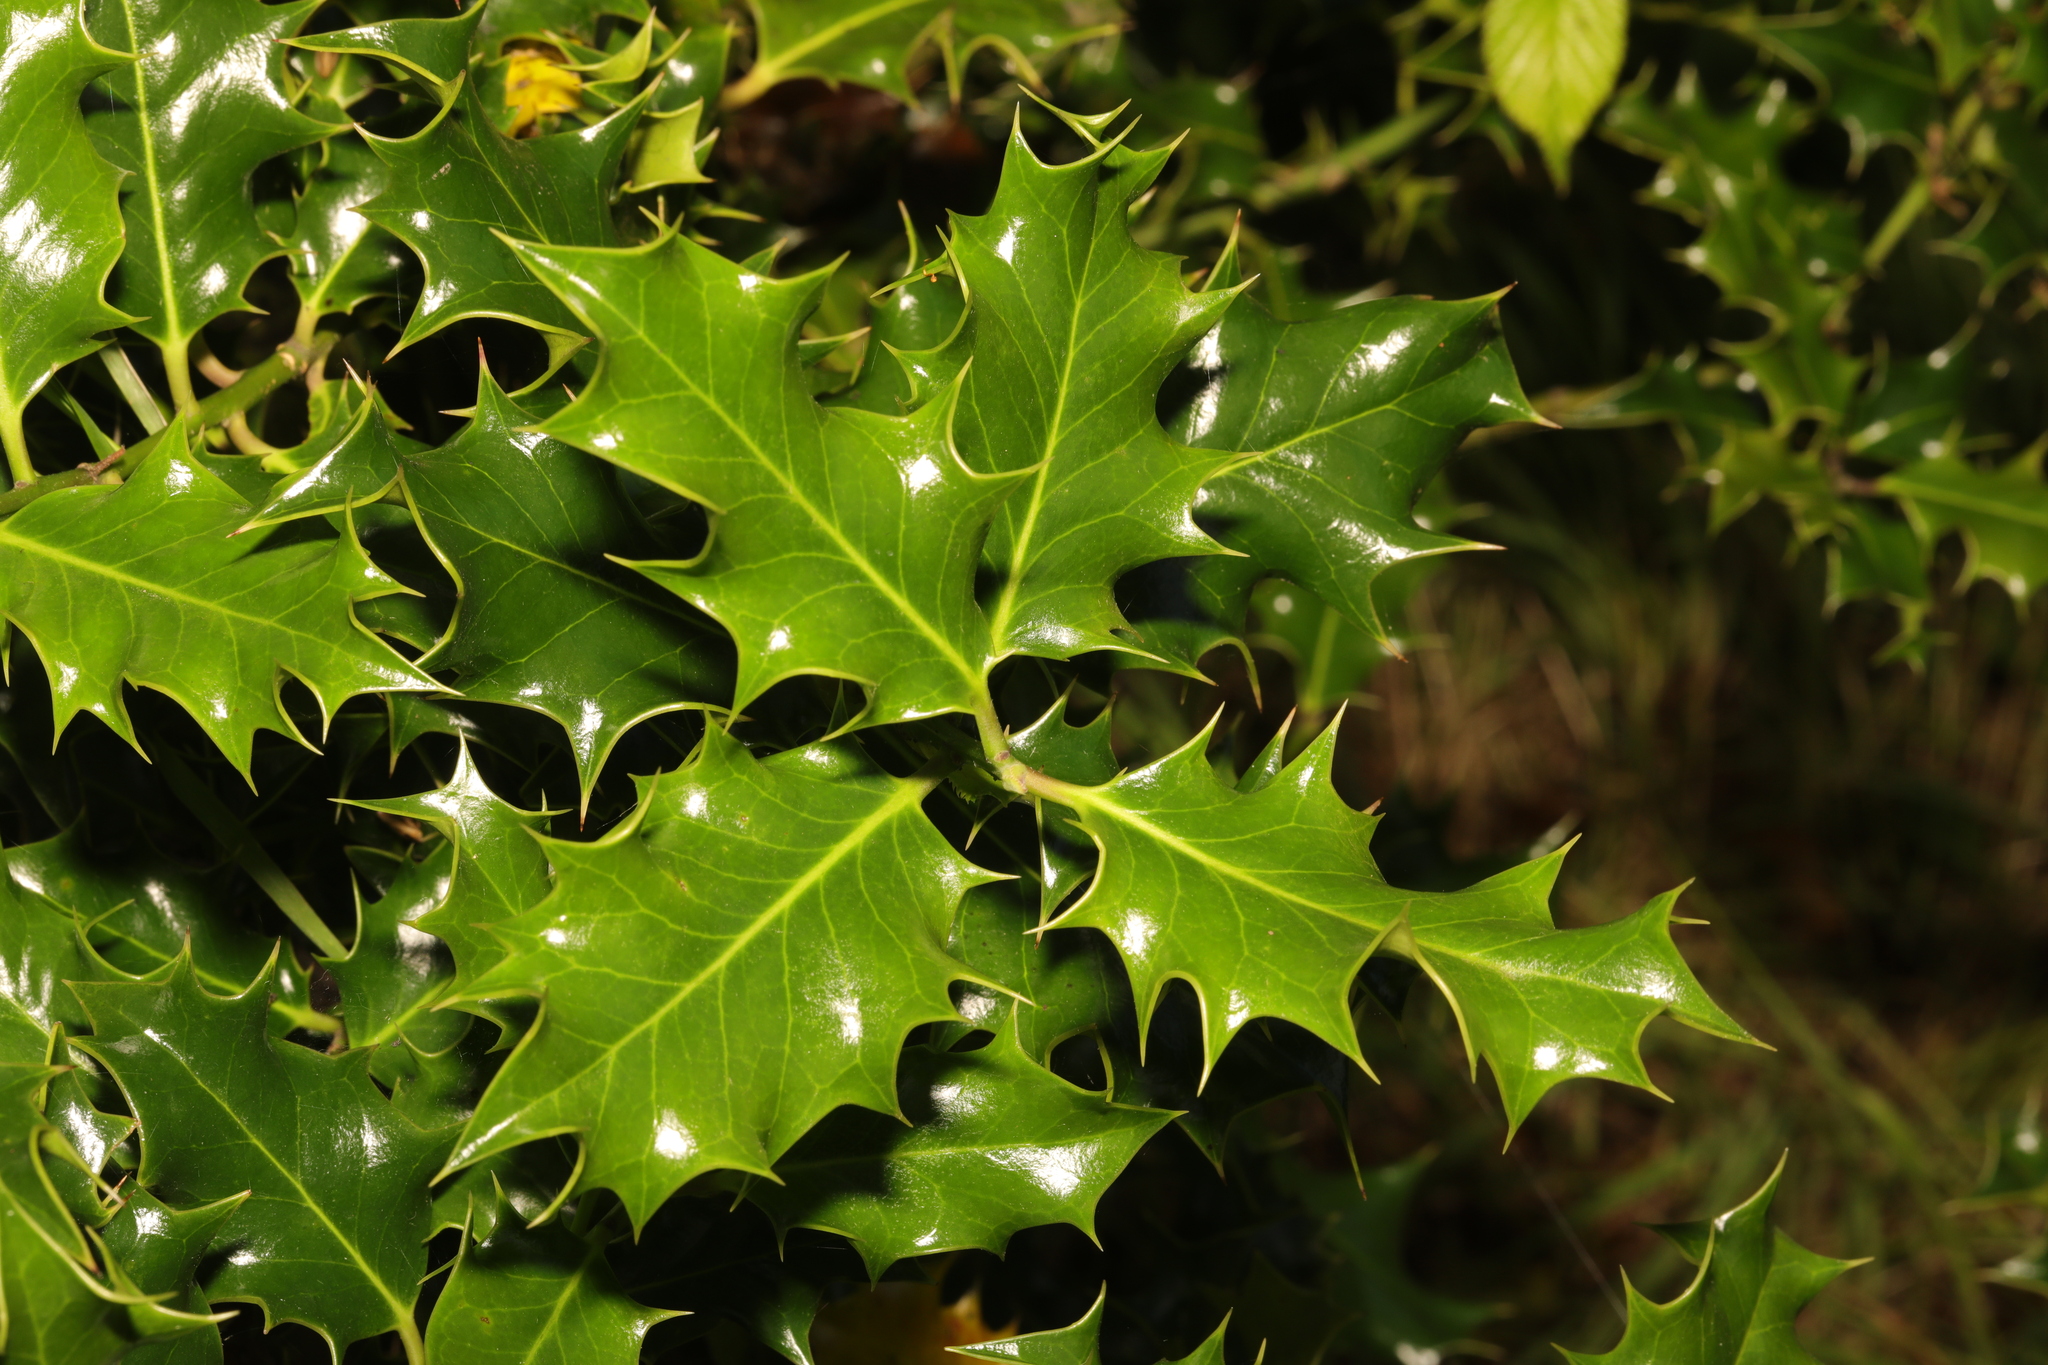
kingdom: Plantae
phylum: Tracheophyta
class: Magnoliopsida
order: Aquifoliales
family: Aquifoliaceae
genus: Ilex
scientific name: Ilex aquifolium
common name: English holly
